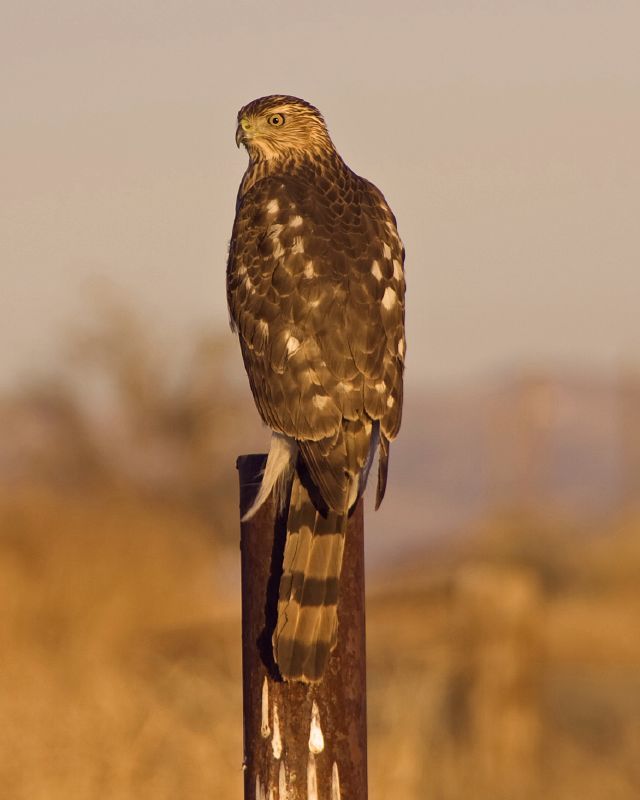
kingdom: Animalia
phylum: Chordata
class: Aves
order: Accipitriformes
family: Accipitridae
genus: Accipiter
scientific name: Accipiter cooperii
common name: Cooper's hawk
